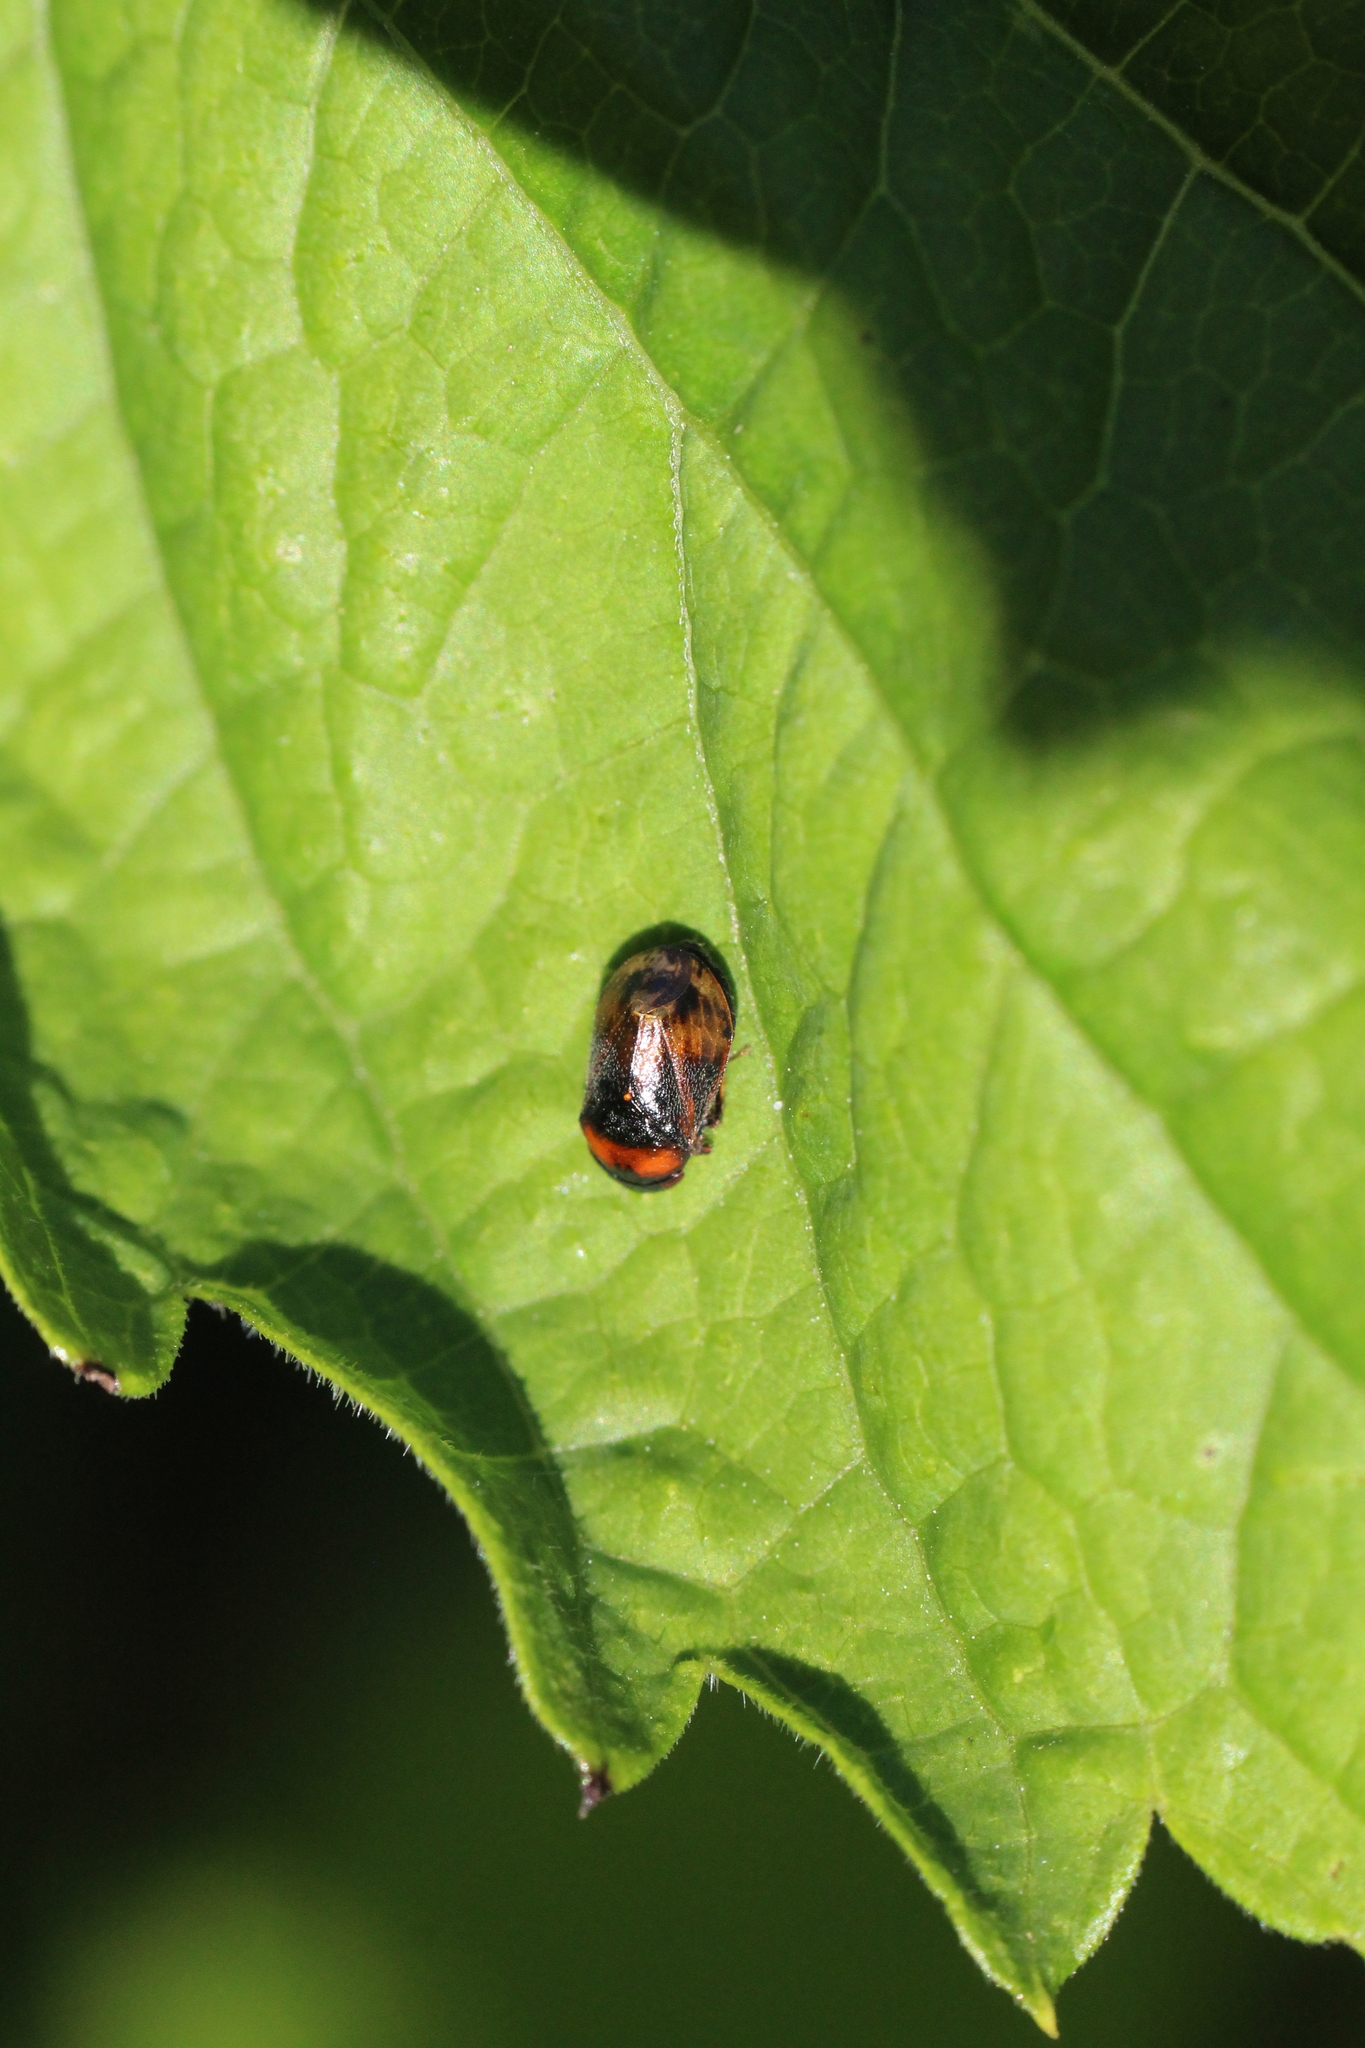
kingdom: Animalia
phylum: Arthropoda
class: Insecta
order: Hemiptera
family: Cicadellidae
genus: Penthimia
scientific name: Penthimia nigra
